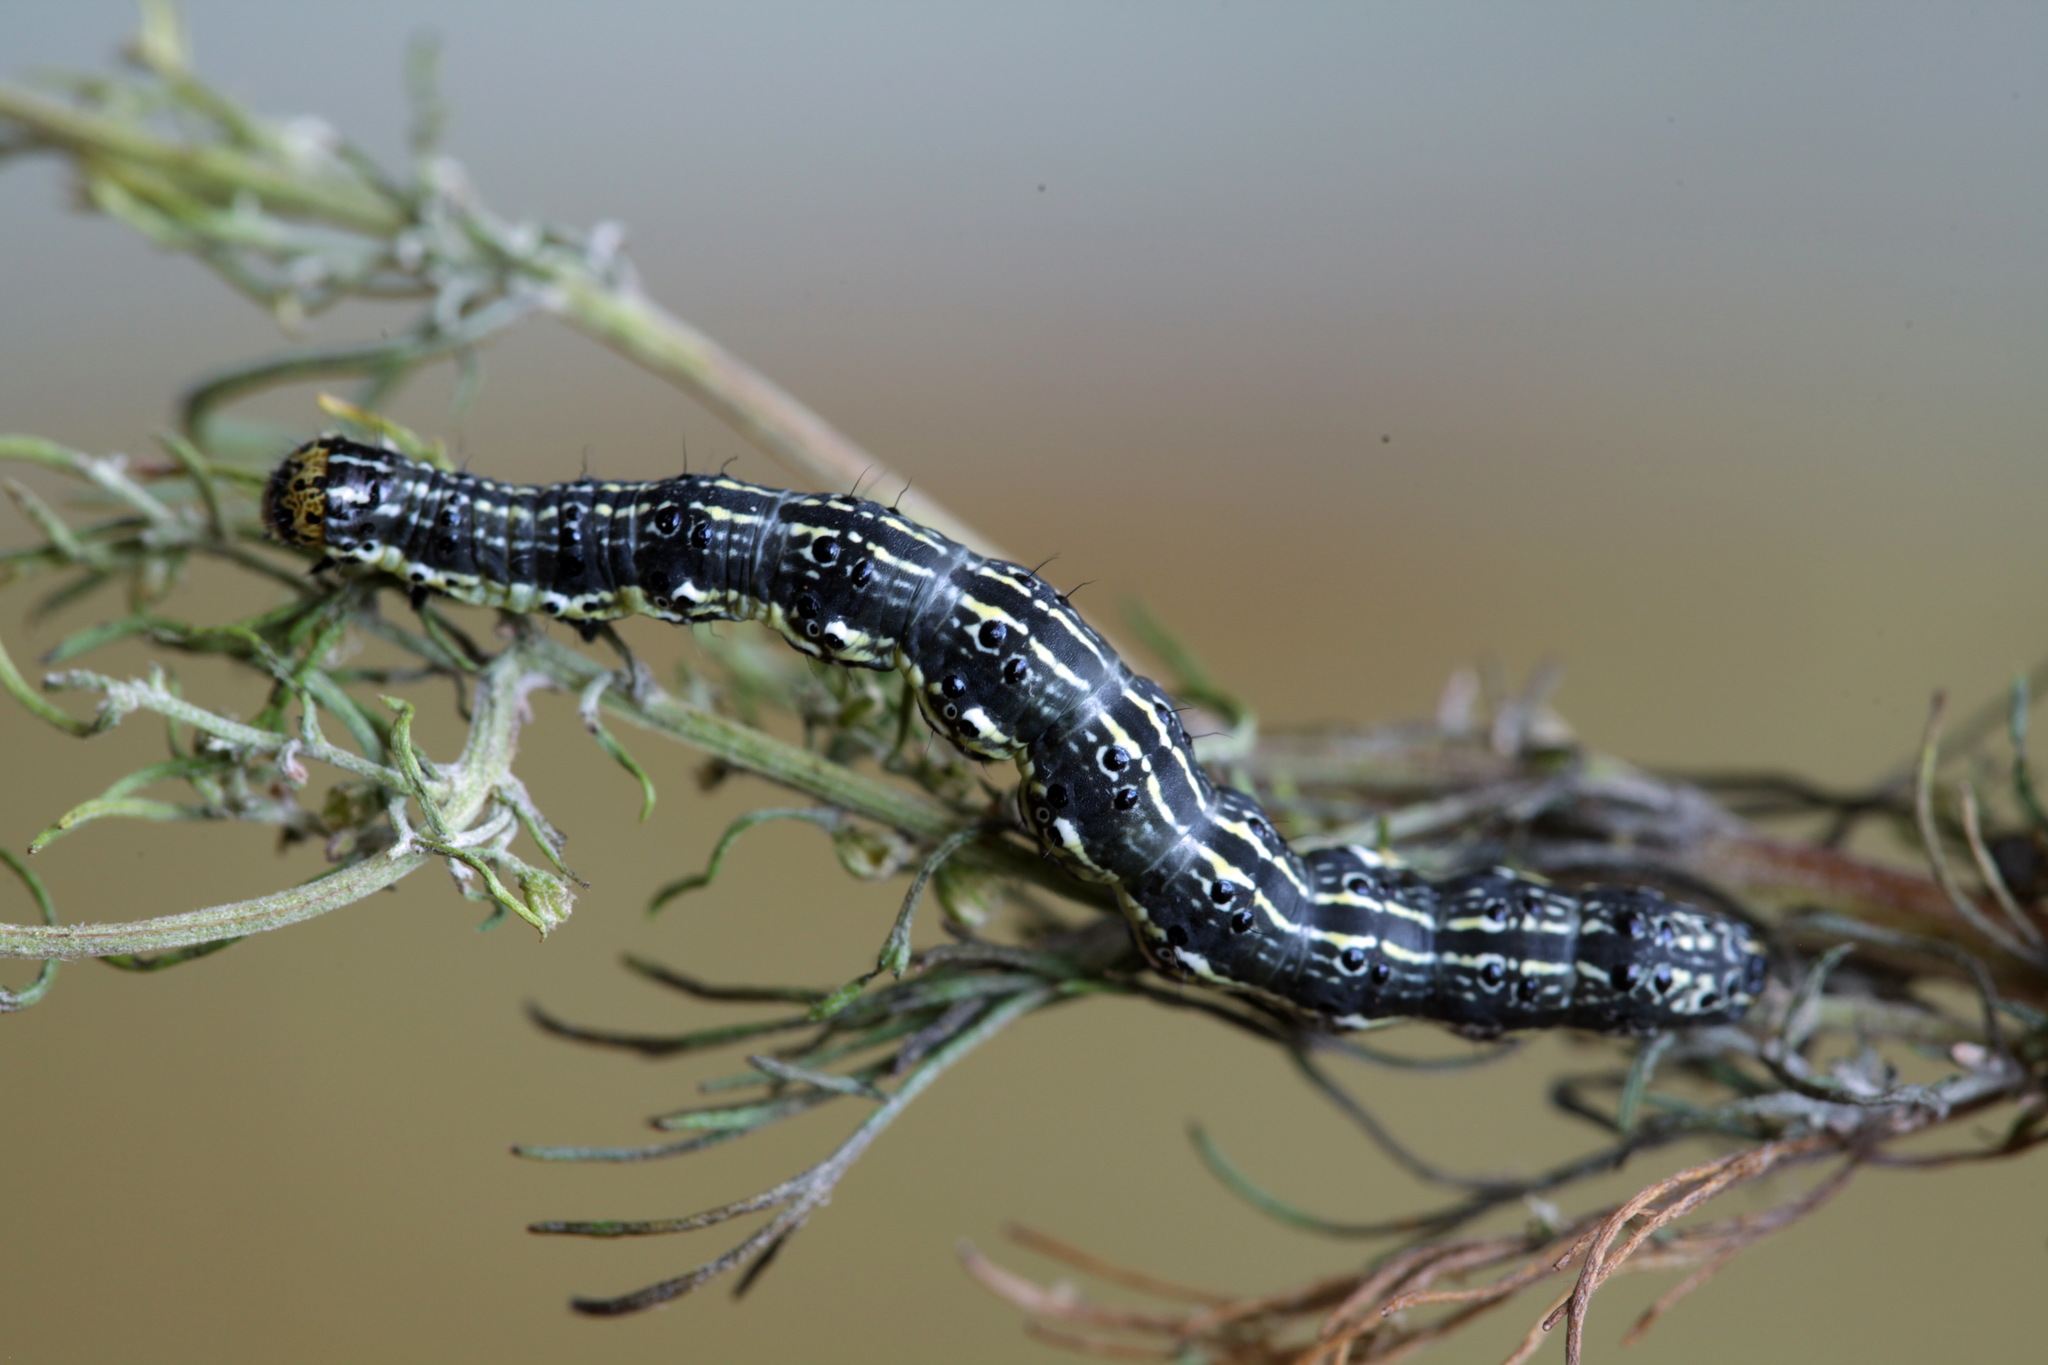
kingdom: Animalia
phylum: Arthropoda
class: Insecta
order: Lepidoptera
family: Noctuidae
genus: Protoschinia
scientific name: Protoschinia scutosa
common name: Spotted clover
